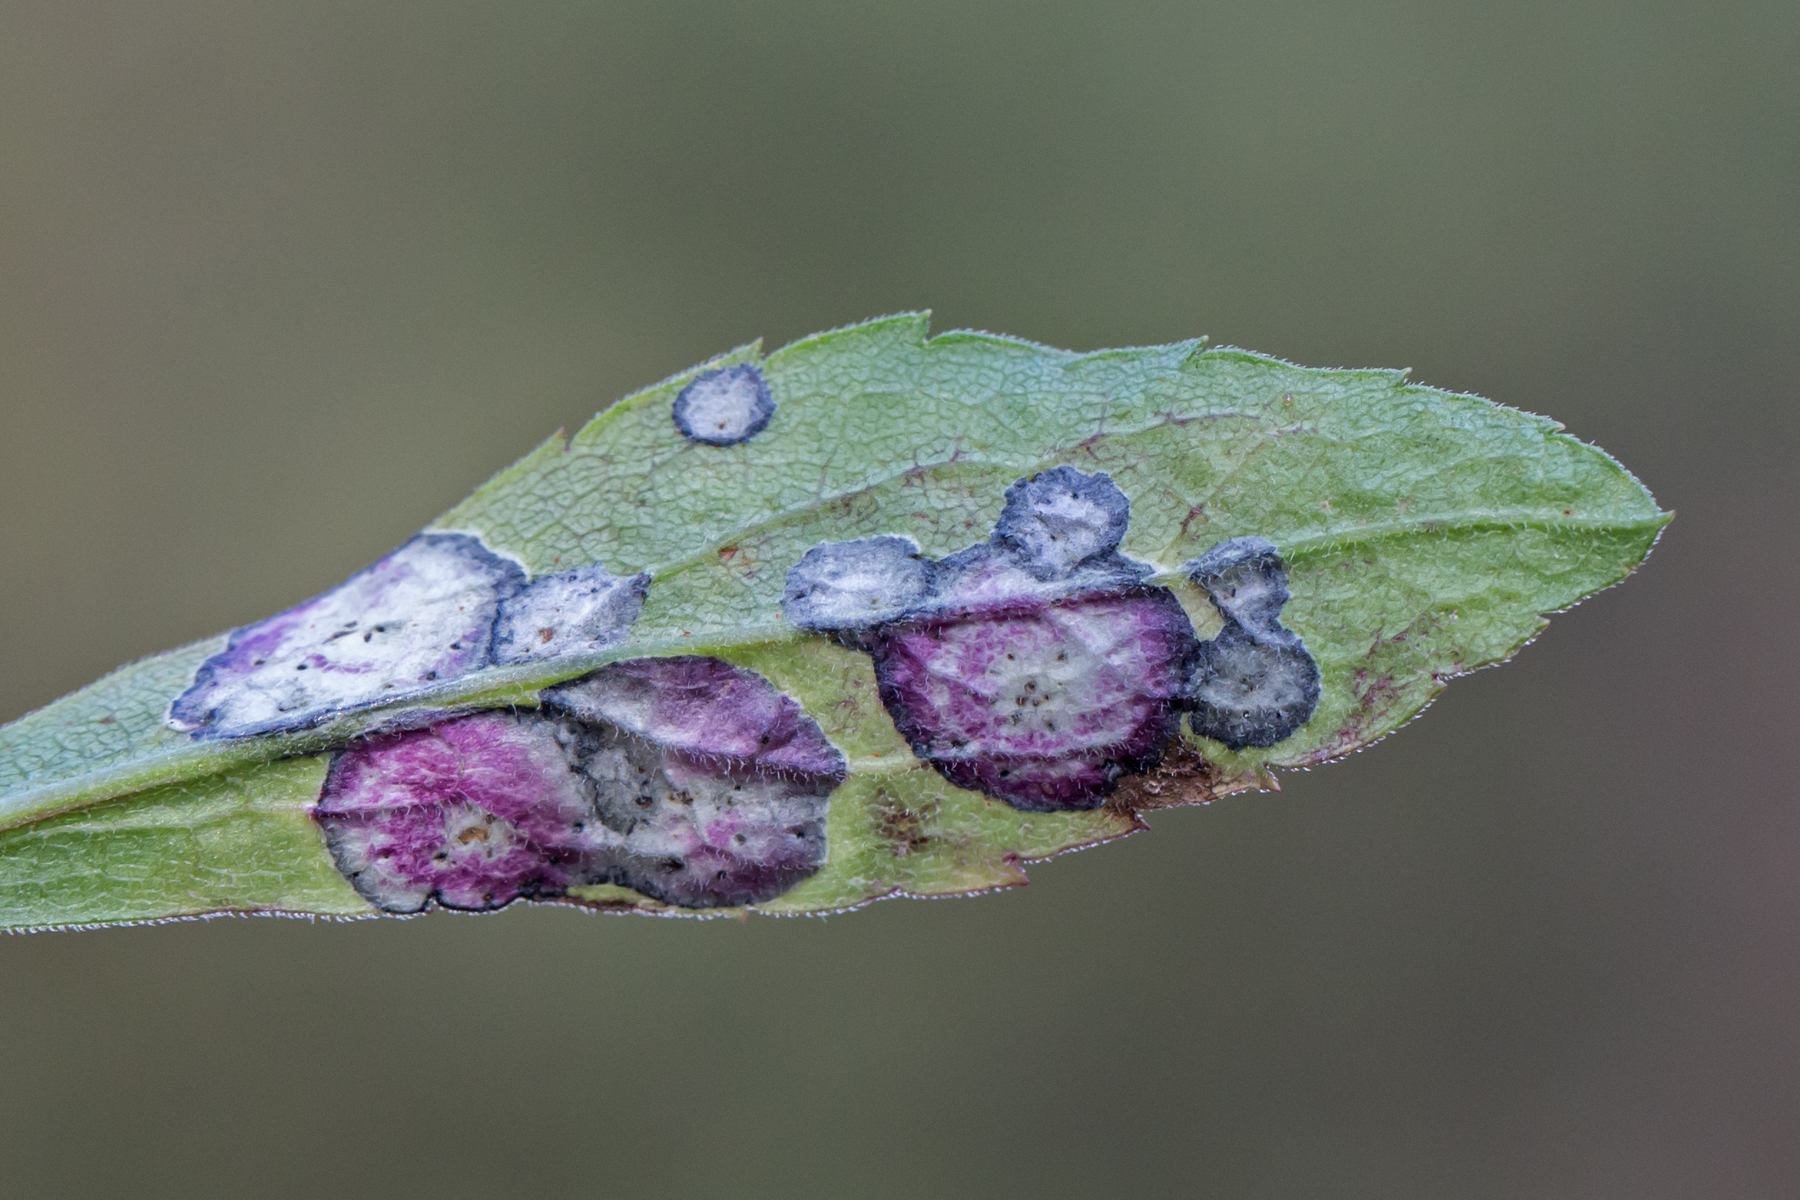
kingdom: Animalia
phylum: Arthropoda
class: Insecta
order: Diptera
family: Cecidomyiidae
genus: Asteromyia
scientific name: Asteromyia carbonifera
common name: Carbonifera goldenrod gall midge
